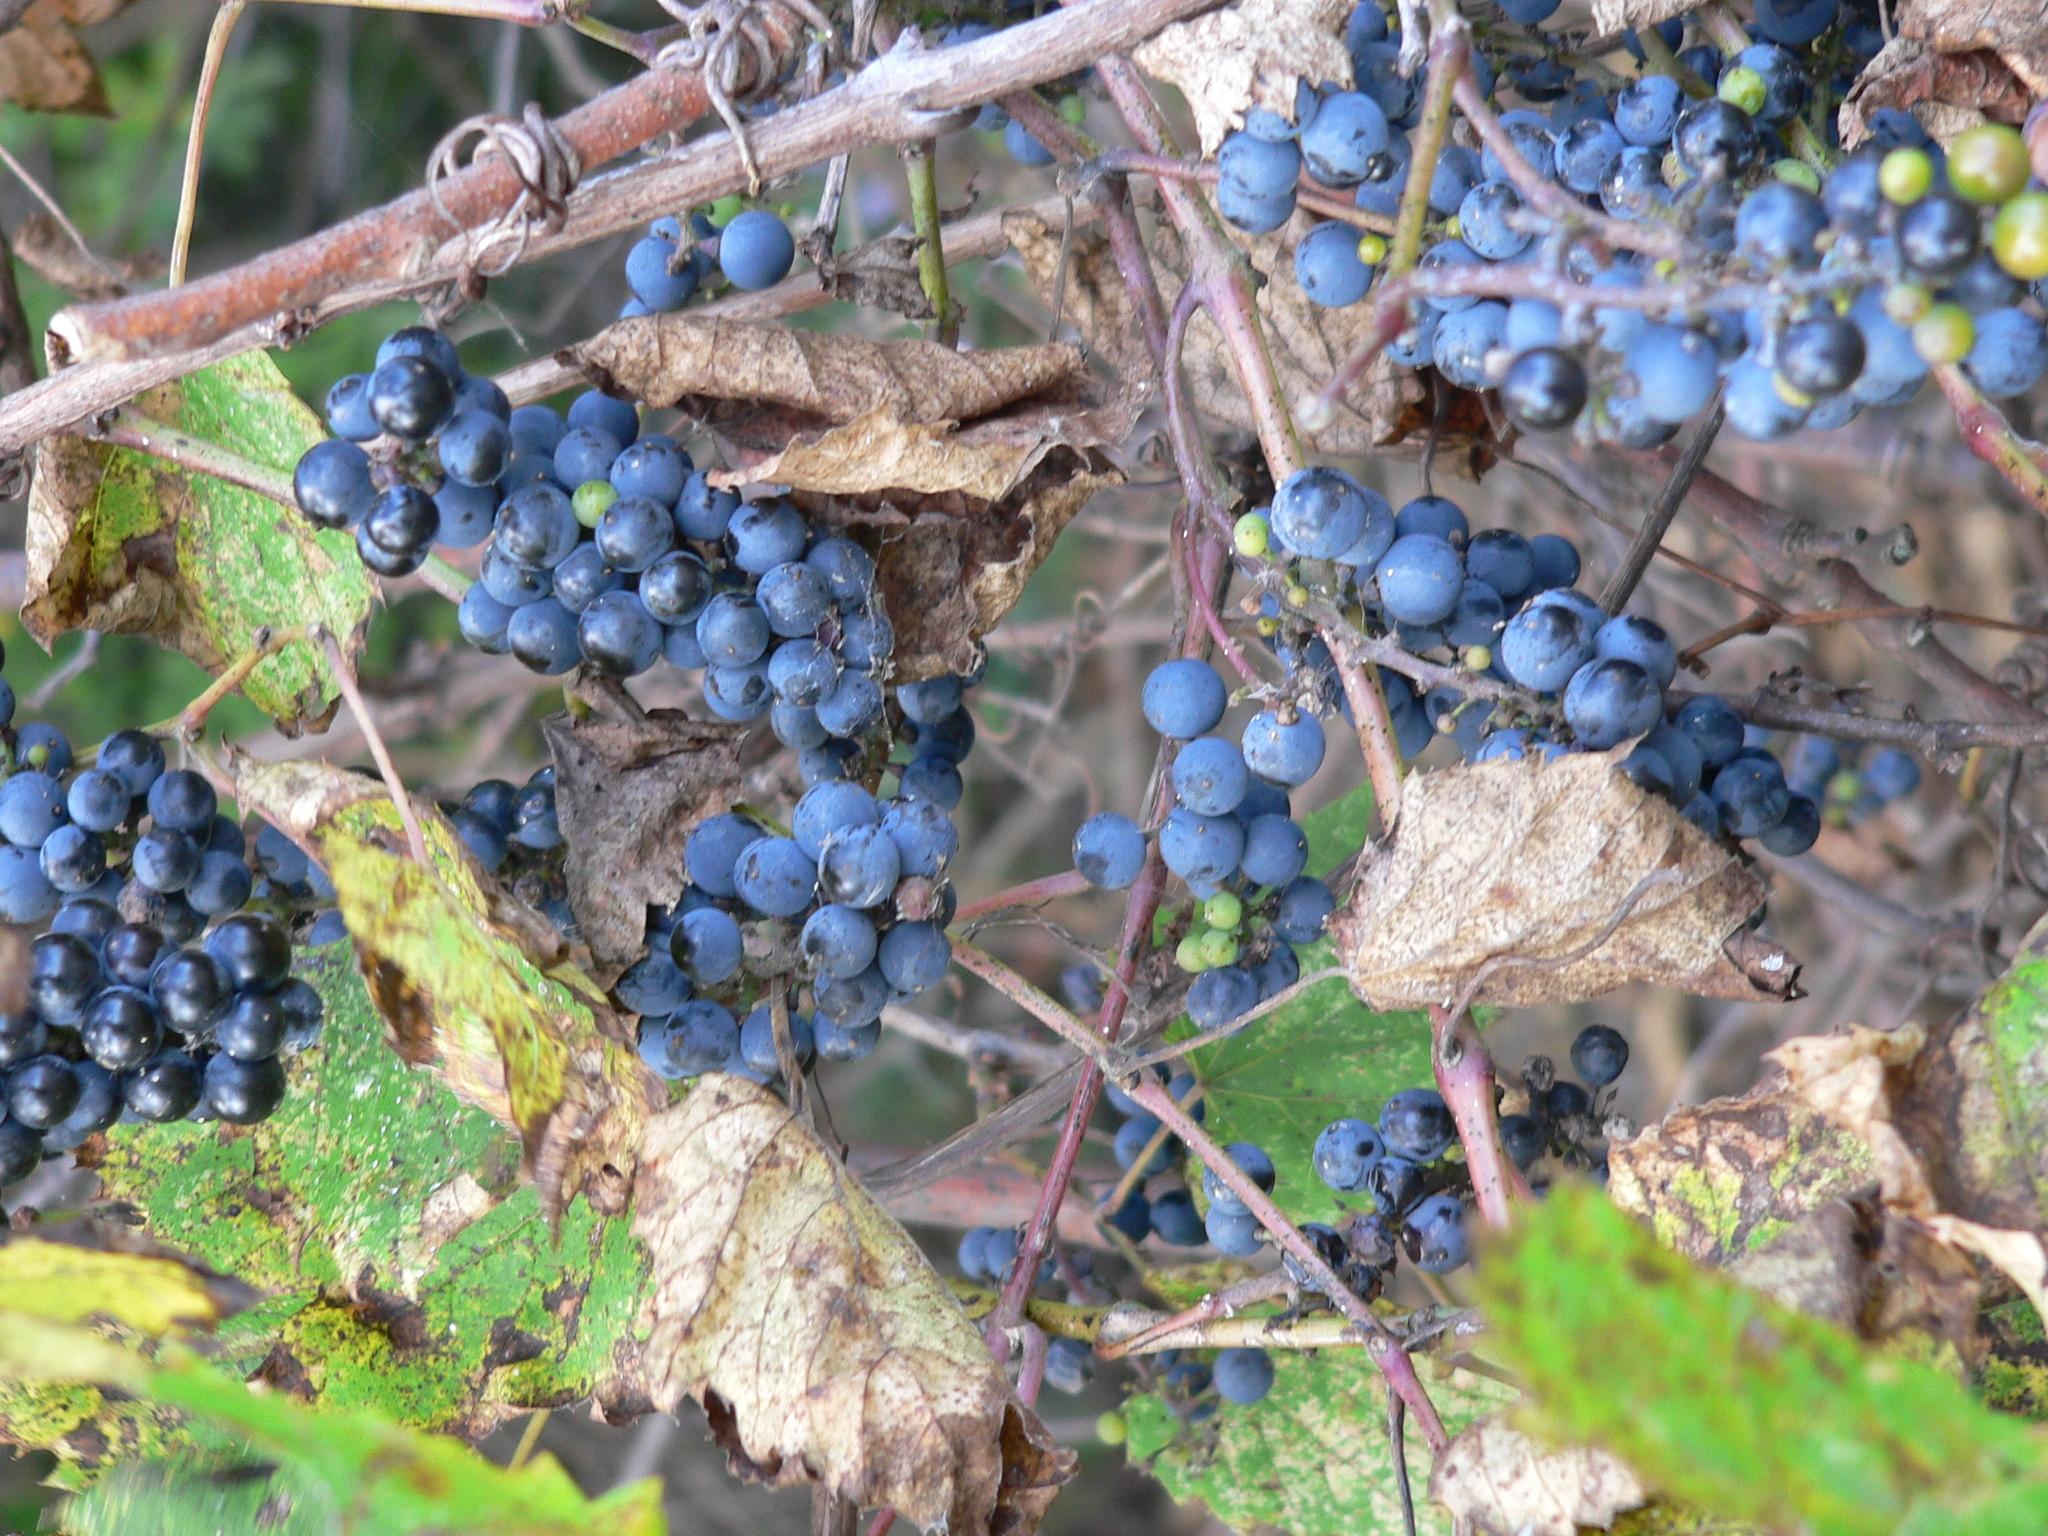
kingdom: Plantae
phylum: Tracheophyta
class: Magnoliopsida
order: Vitales
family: Vitaceae
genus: Vitis
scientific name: Vitis riparia
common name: Frost grape
